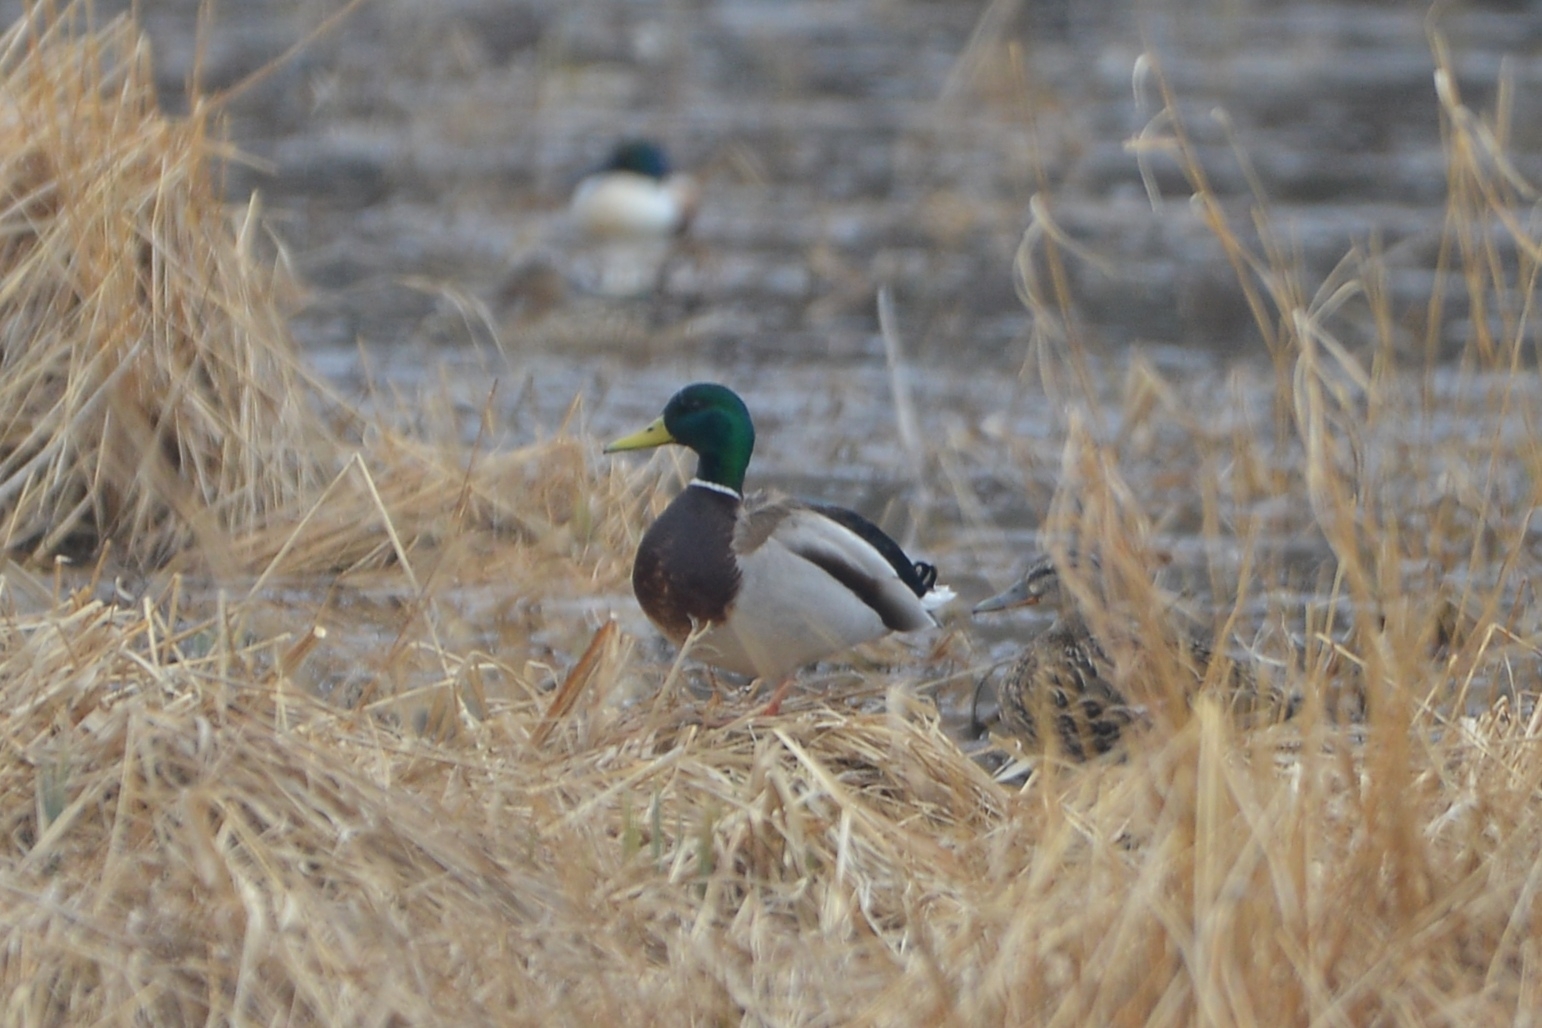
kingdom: Animalia
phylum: Chordata
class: Aves
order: Anseriformes
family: Anatidae
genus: Anas
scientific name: Anas platyrhynchos
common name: Mallard
